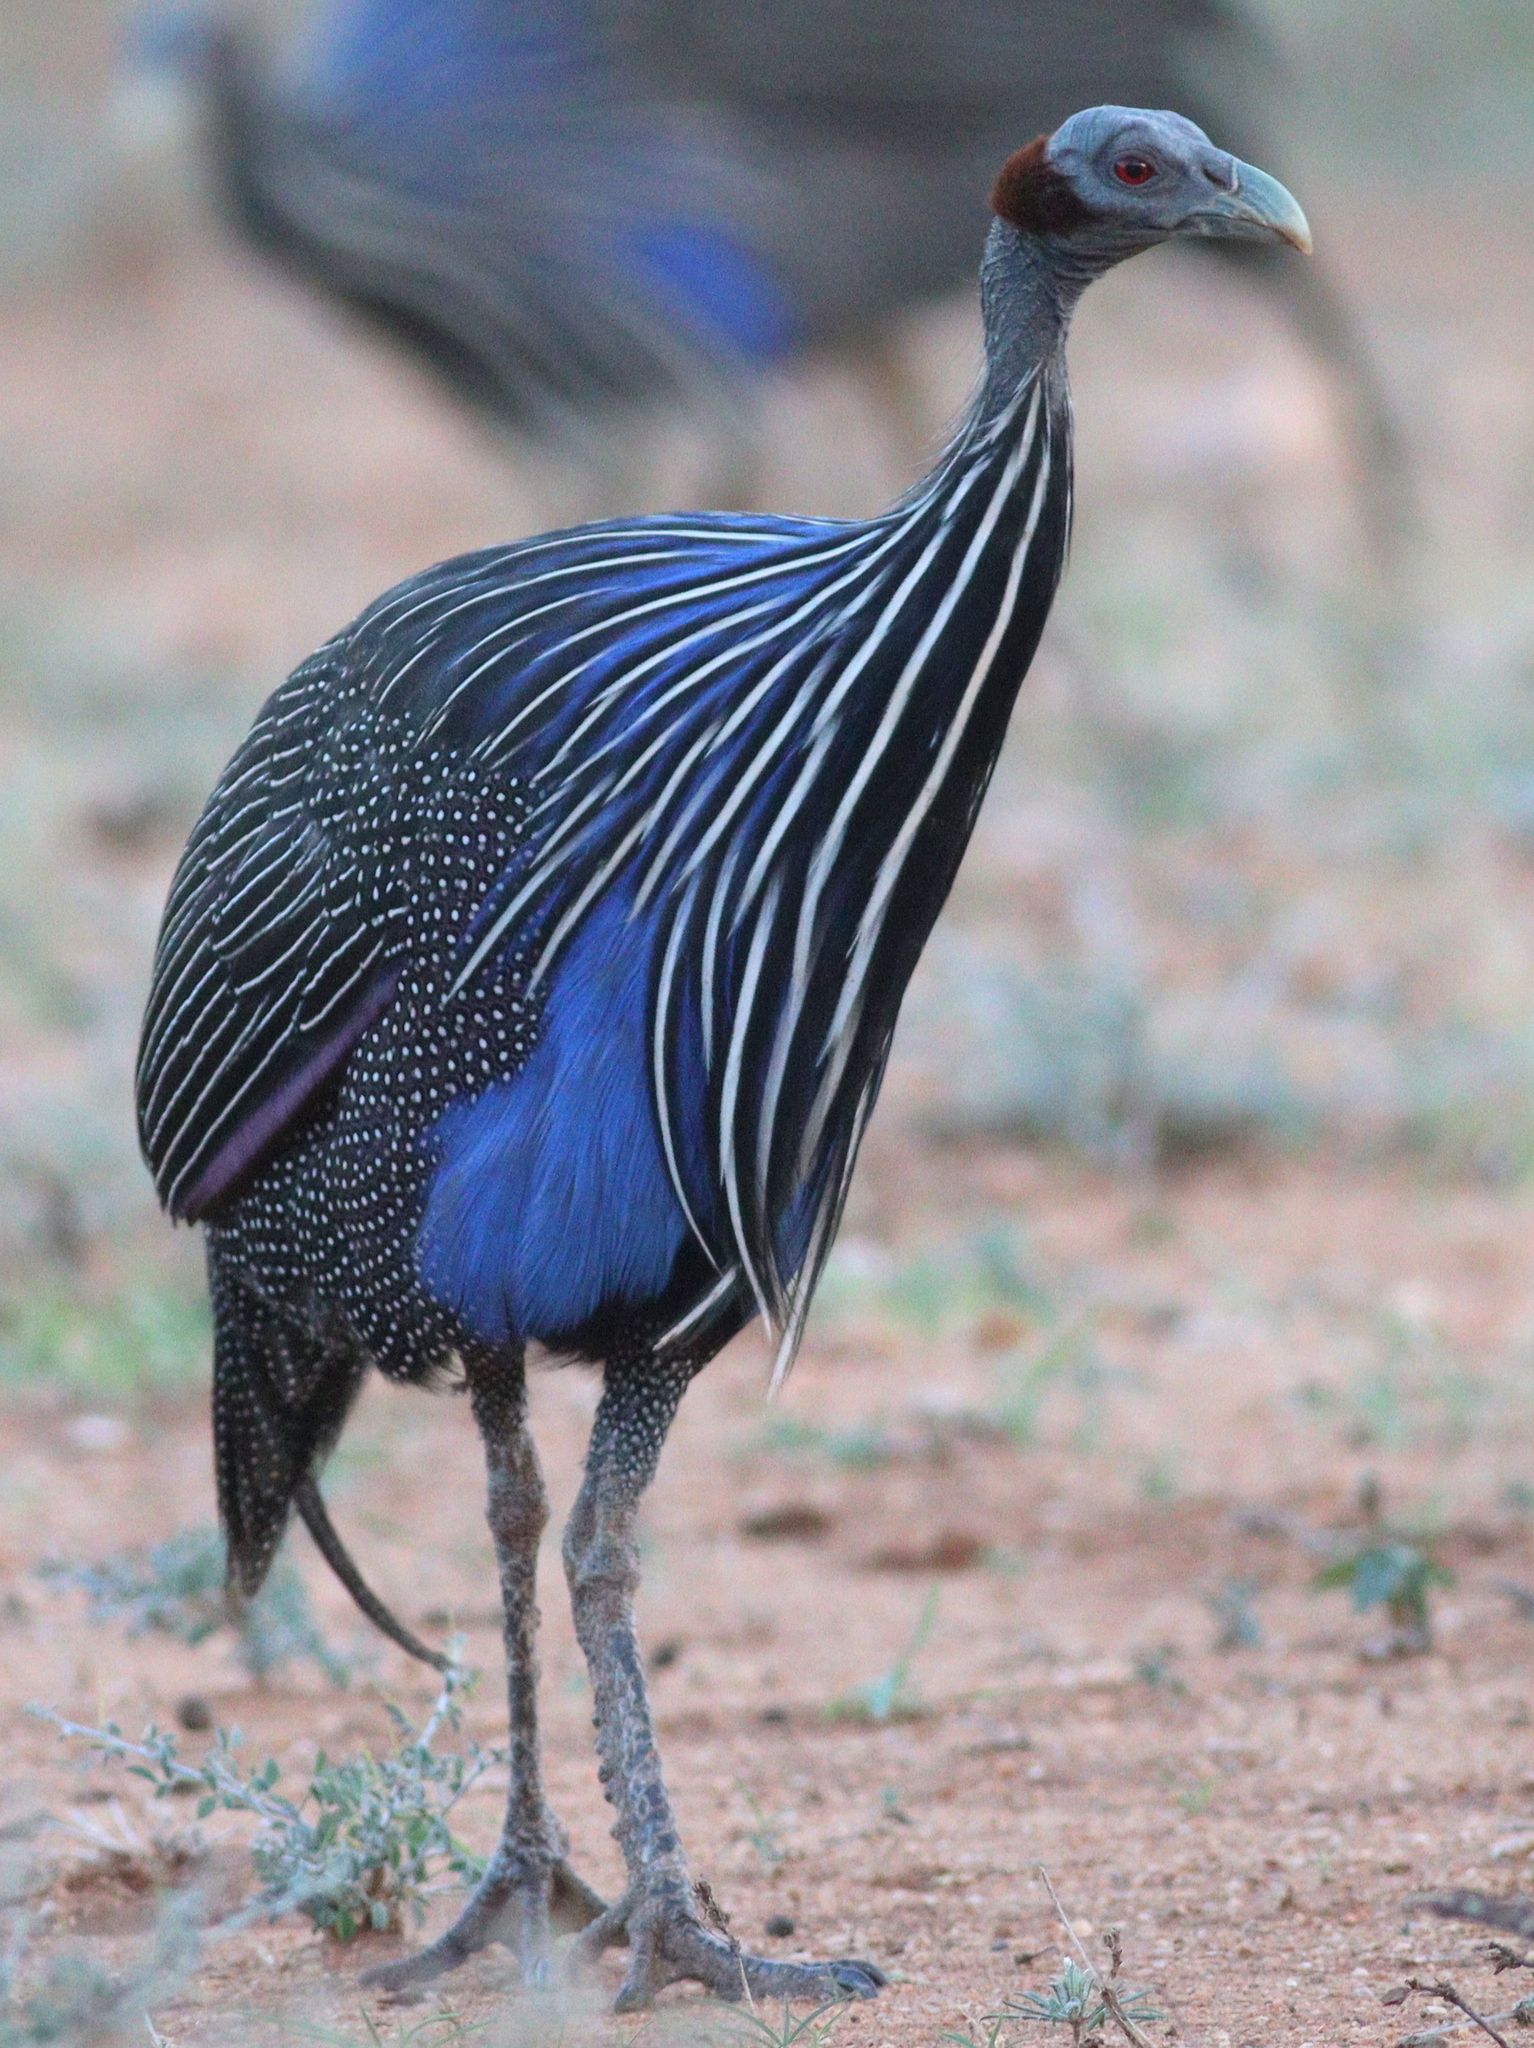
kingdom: Animalia
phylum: Chordata
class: Aves
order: Galliformes
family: Numididae
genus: Acryllium
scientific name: Acryllium vulturinum
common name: Vulturine guineafowl
